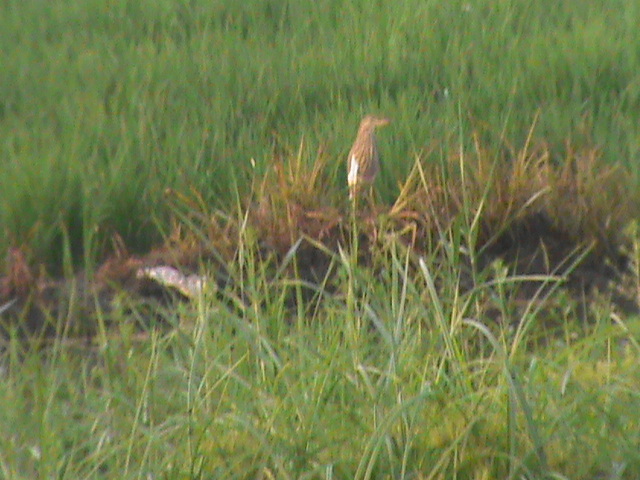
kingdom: Animalia
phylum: Chordata
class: Aves
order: Pelecaniformes
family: Ardeidae
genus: Ardeola
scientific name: Ardeola grayii
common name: Indian pond heron
